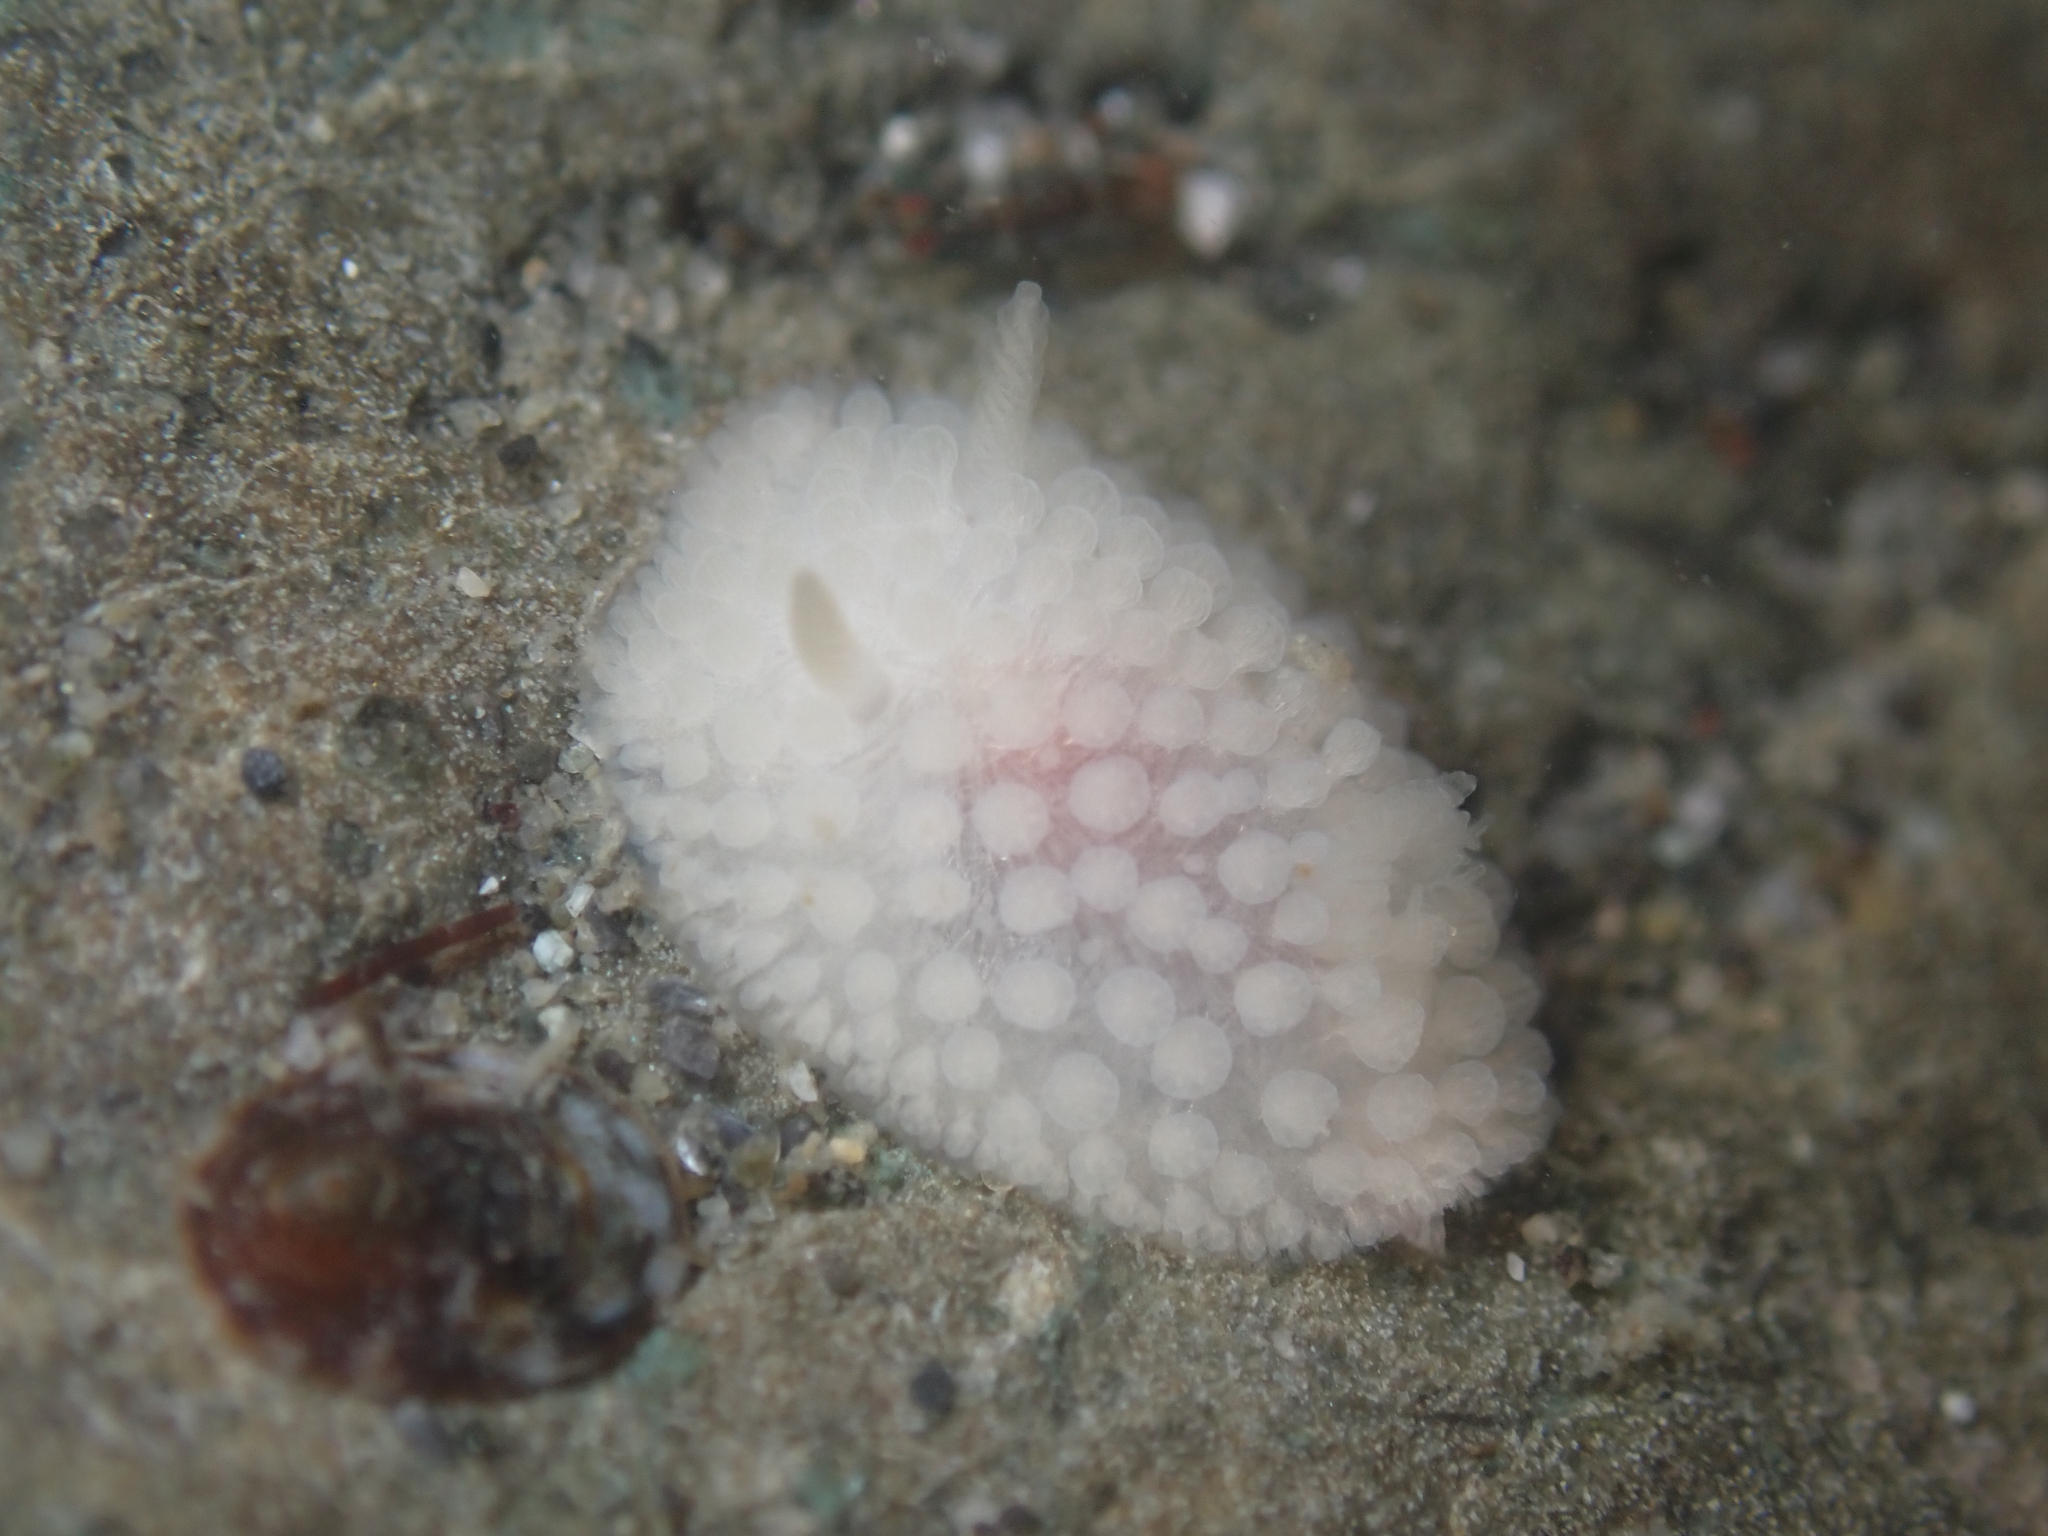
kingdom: Animalia
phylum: Mollusca
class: Gastropoda
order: Nudibranchia
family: Onchidorididae
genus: Onchidoris
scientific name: Onchidoris muricata
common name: Rough doris
